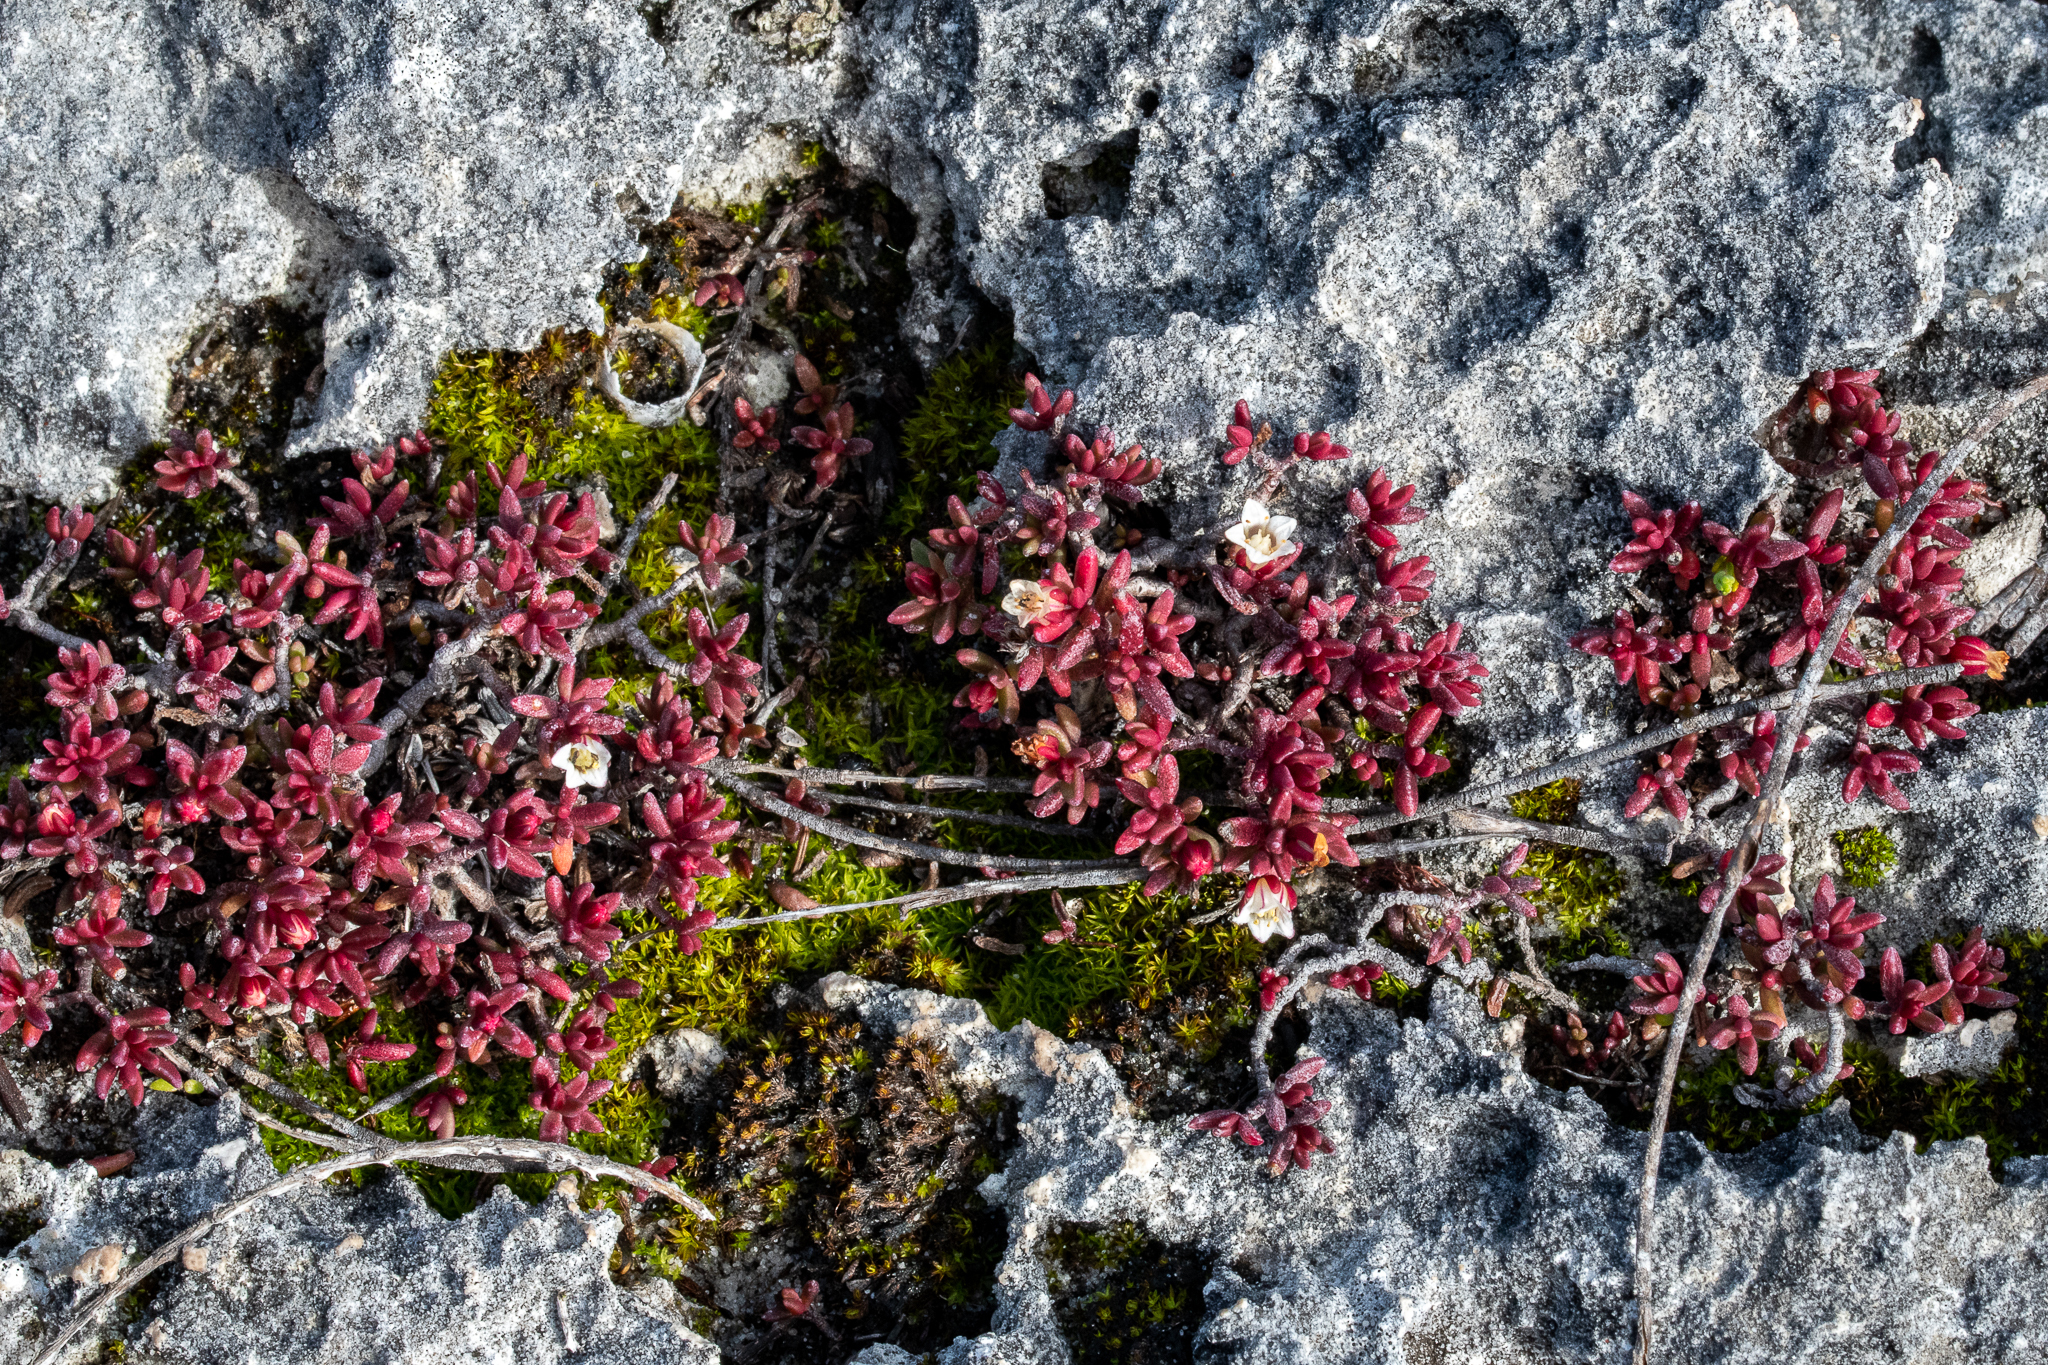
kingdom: Plantae
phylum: Tracheophyta
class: Magnoliopsida
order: Saxifragales
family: Crassulaceae
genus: Crassula
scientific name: Crassula expansa
